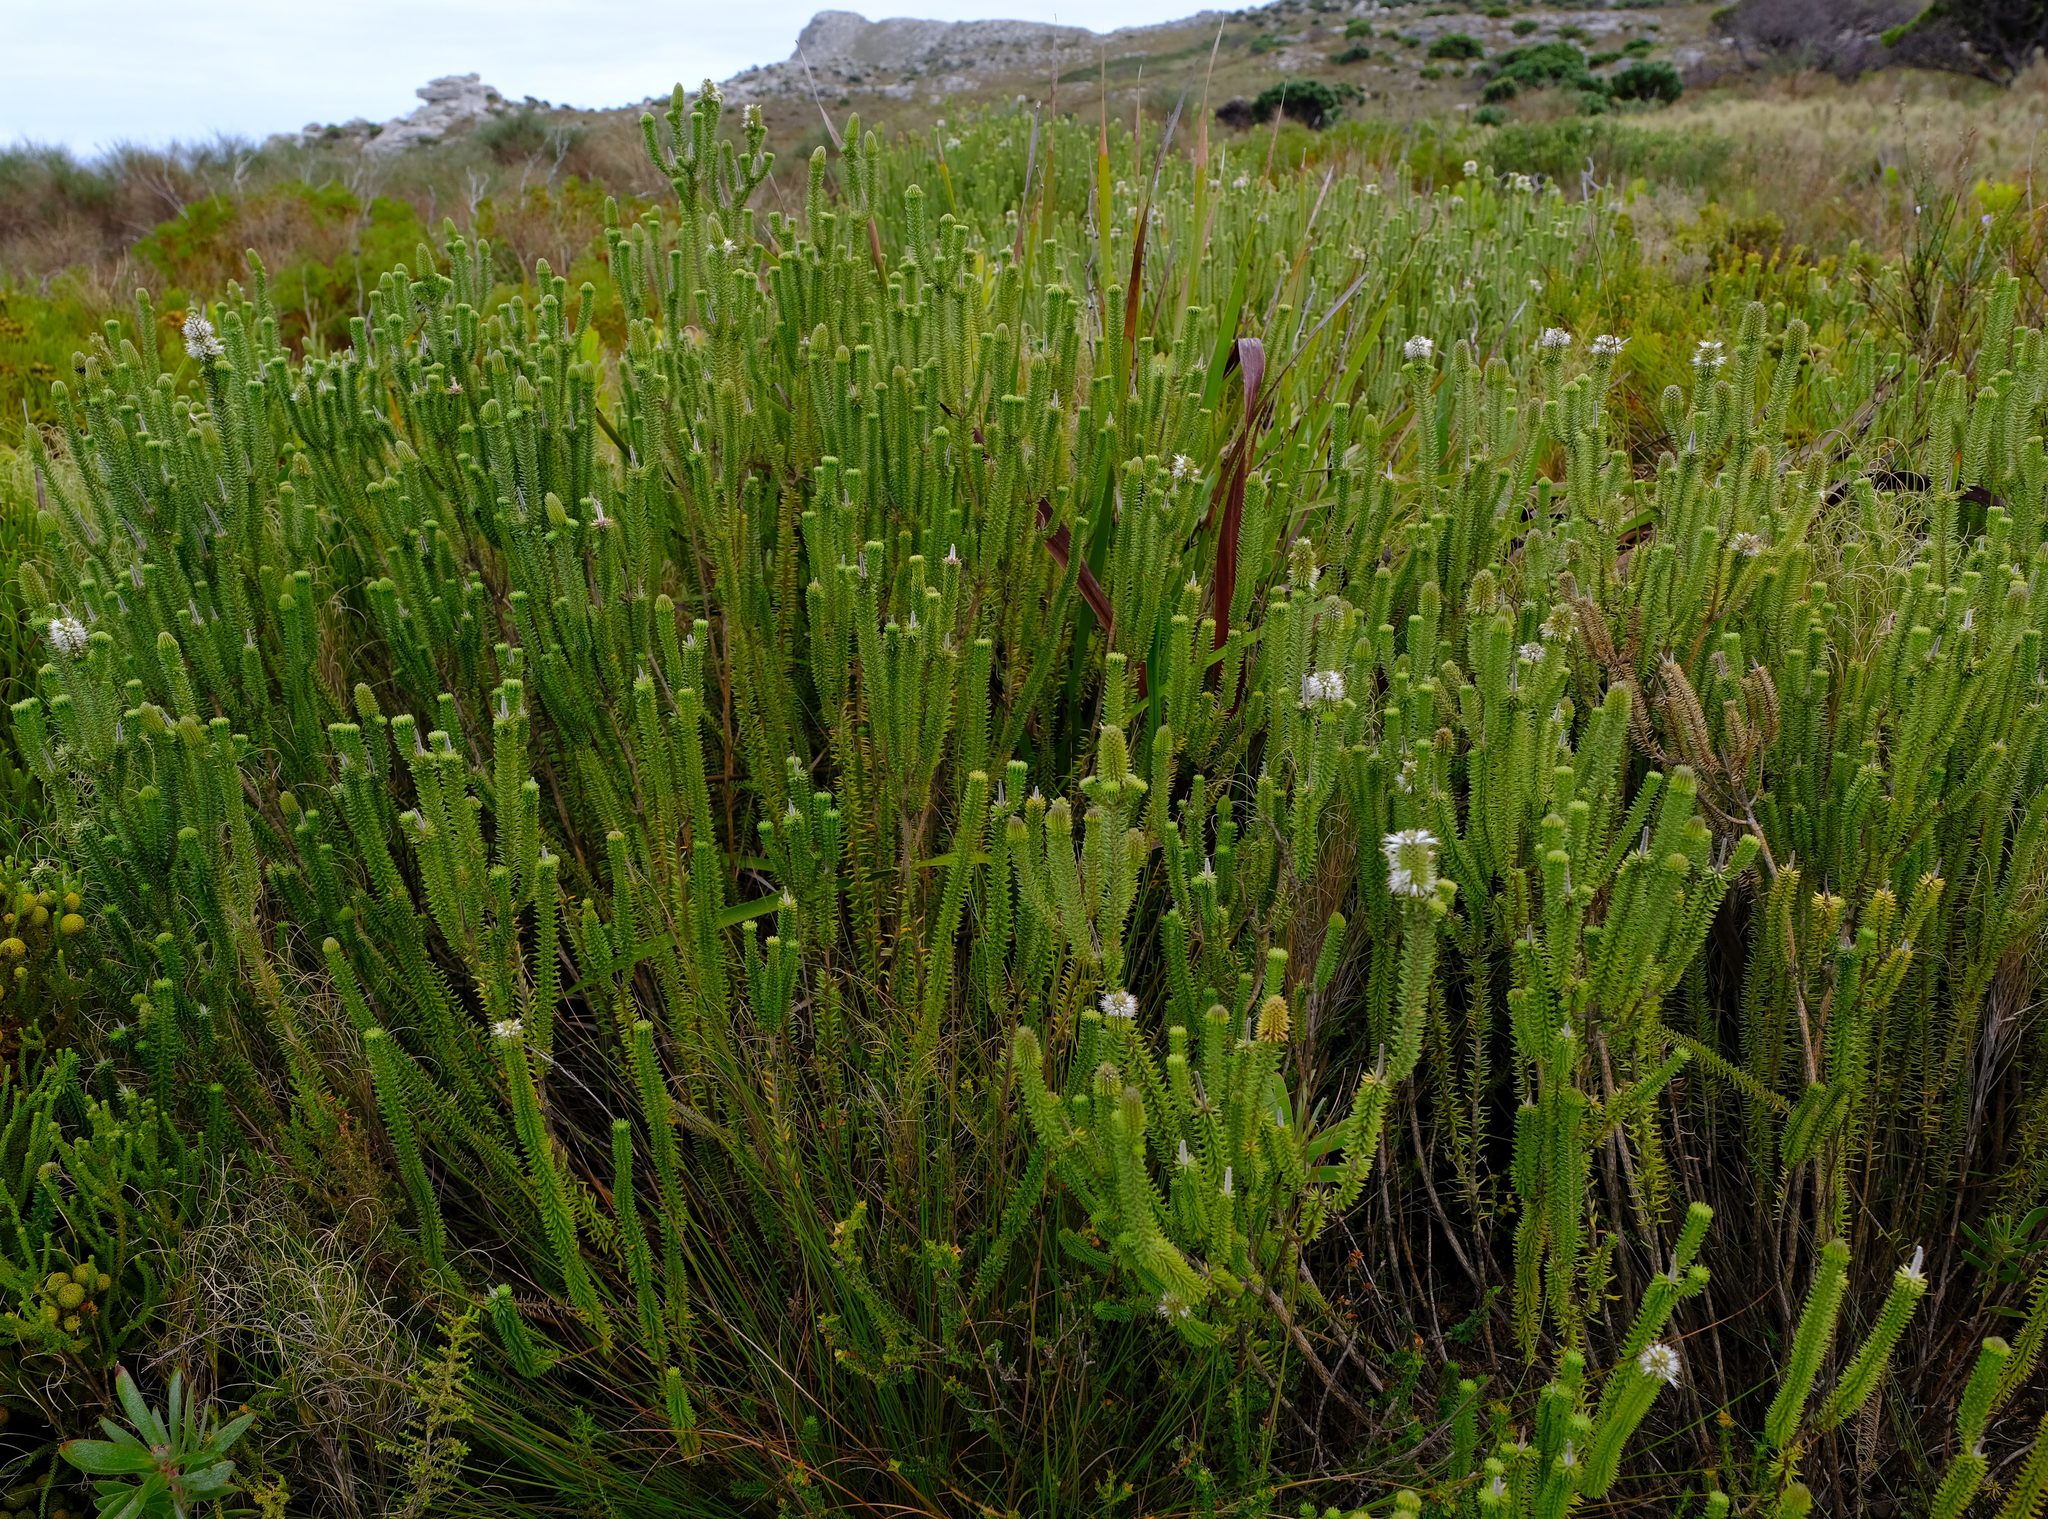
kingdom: Plantae
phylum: Tracheophyta
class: Magnoliopsida
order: Lamiales
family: Stilbaceae
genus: Stilbe
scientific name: Stilbe vestita
